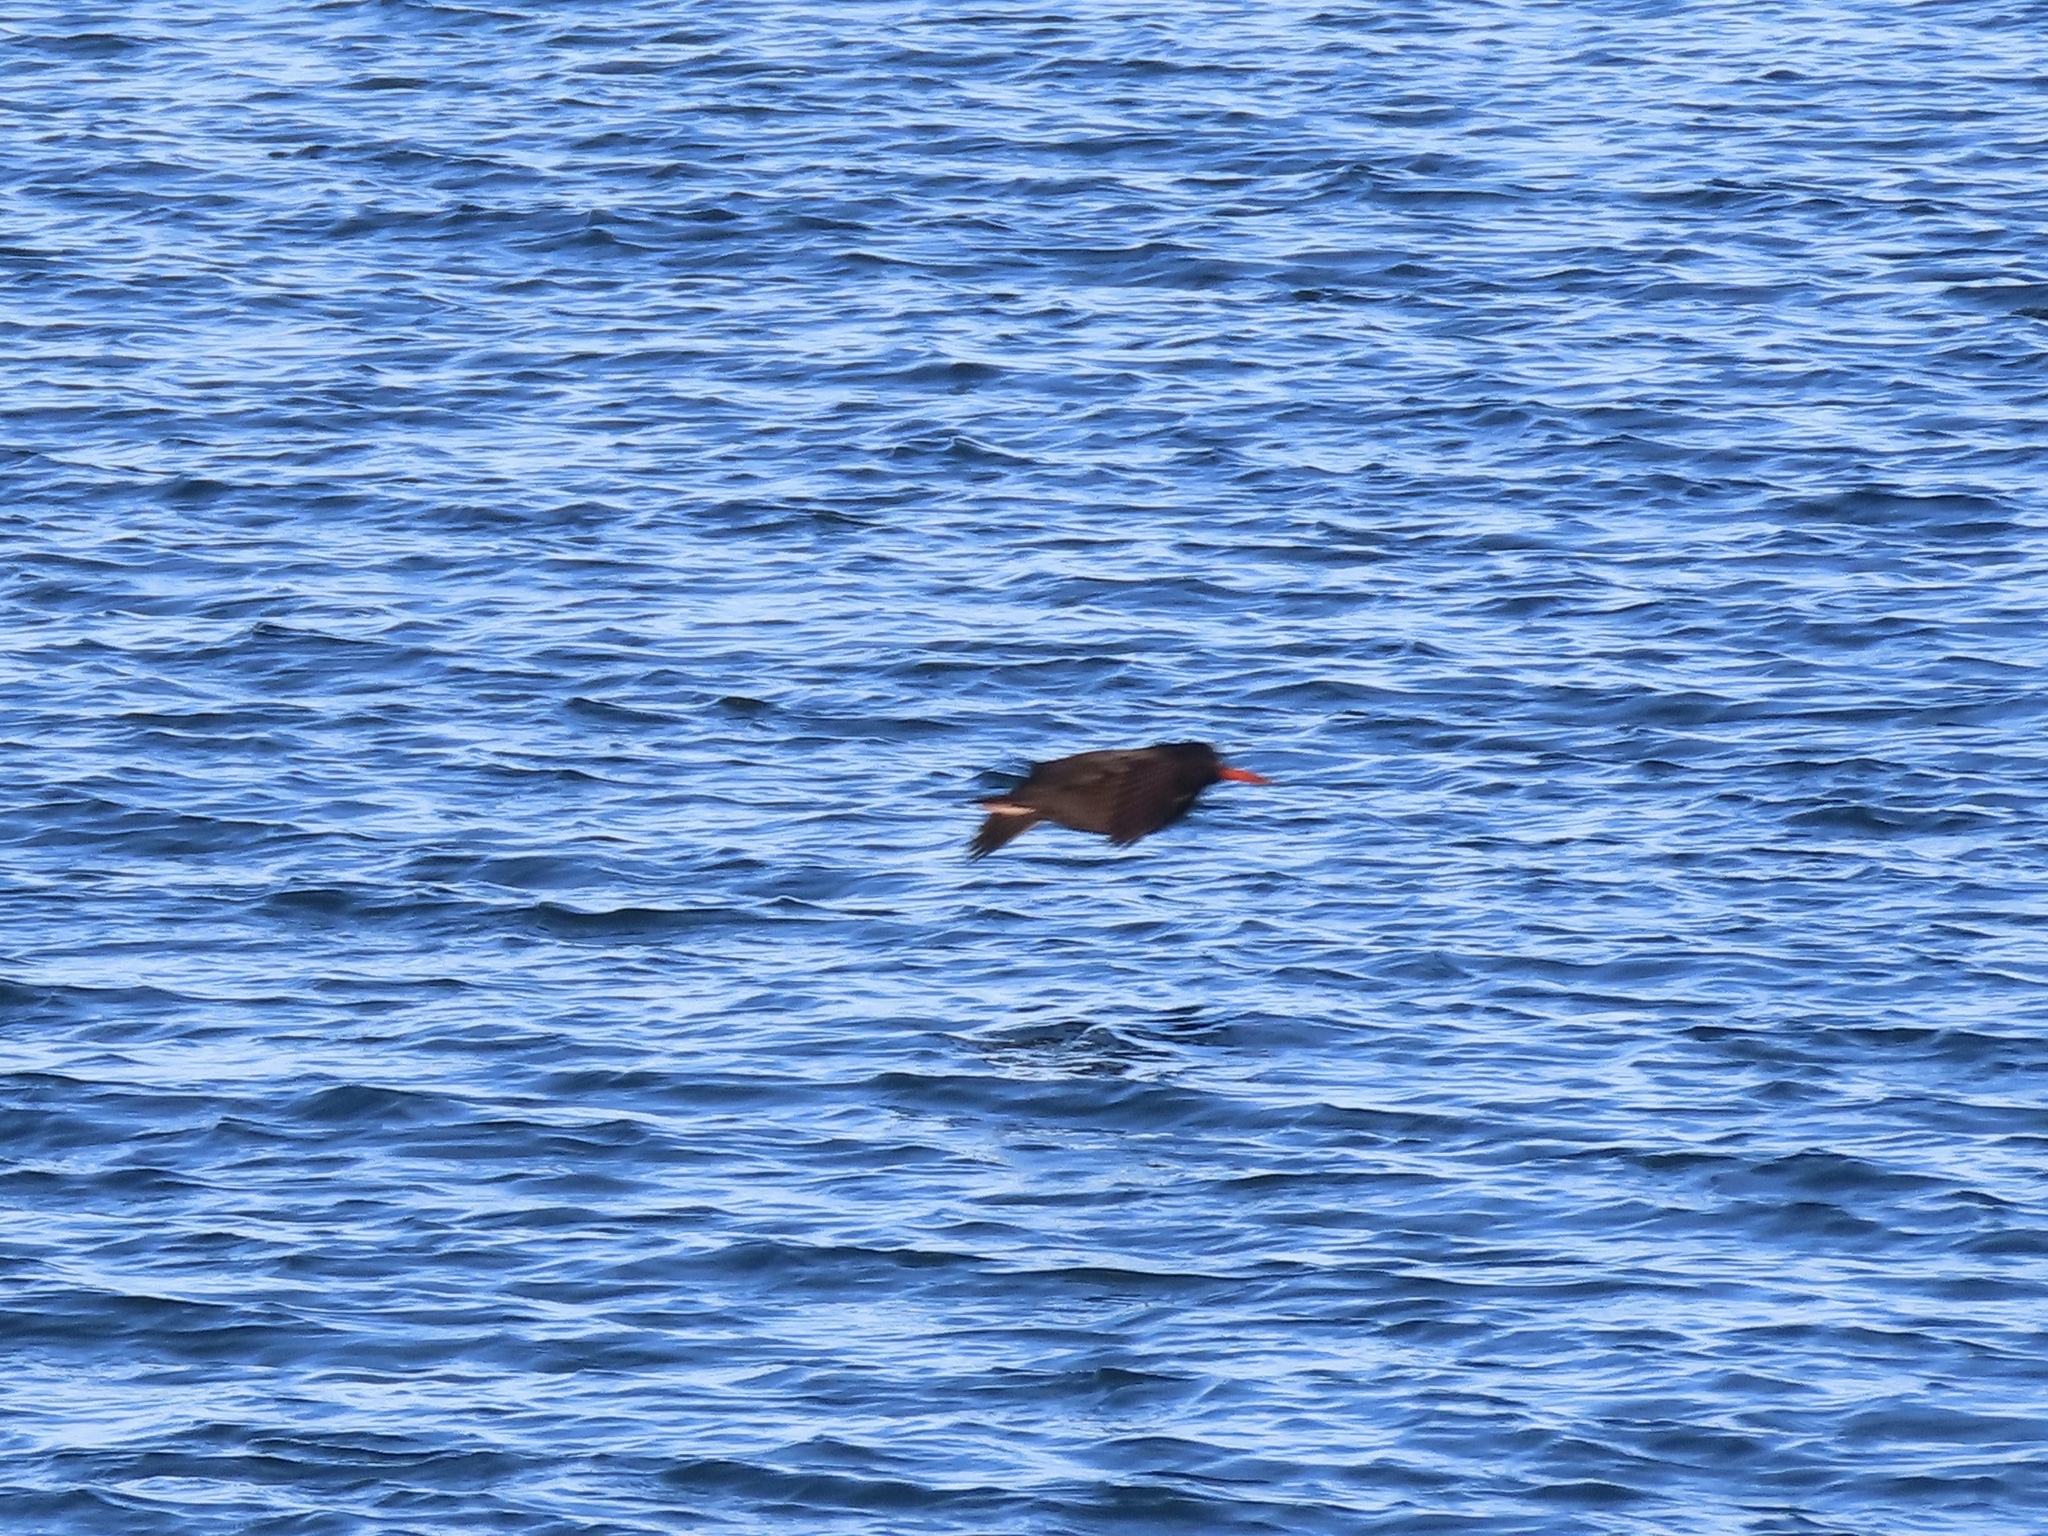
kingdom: Animalia
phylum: Chordata
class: Aves
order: Charadriiformes
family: Haematopodidae
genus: Haematopus
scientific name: Haematopus bachmani
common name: Black oystercatcher
